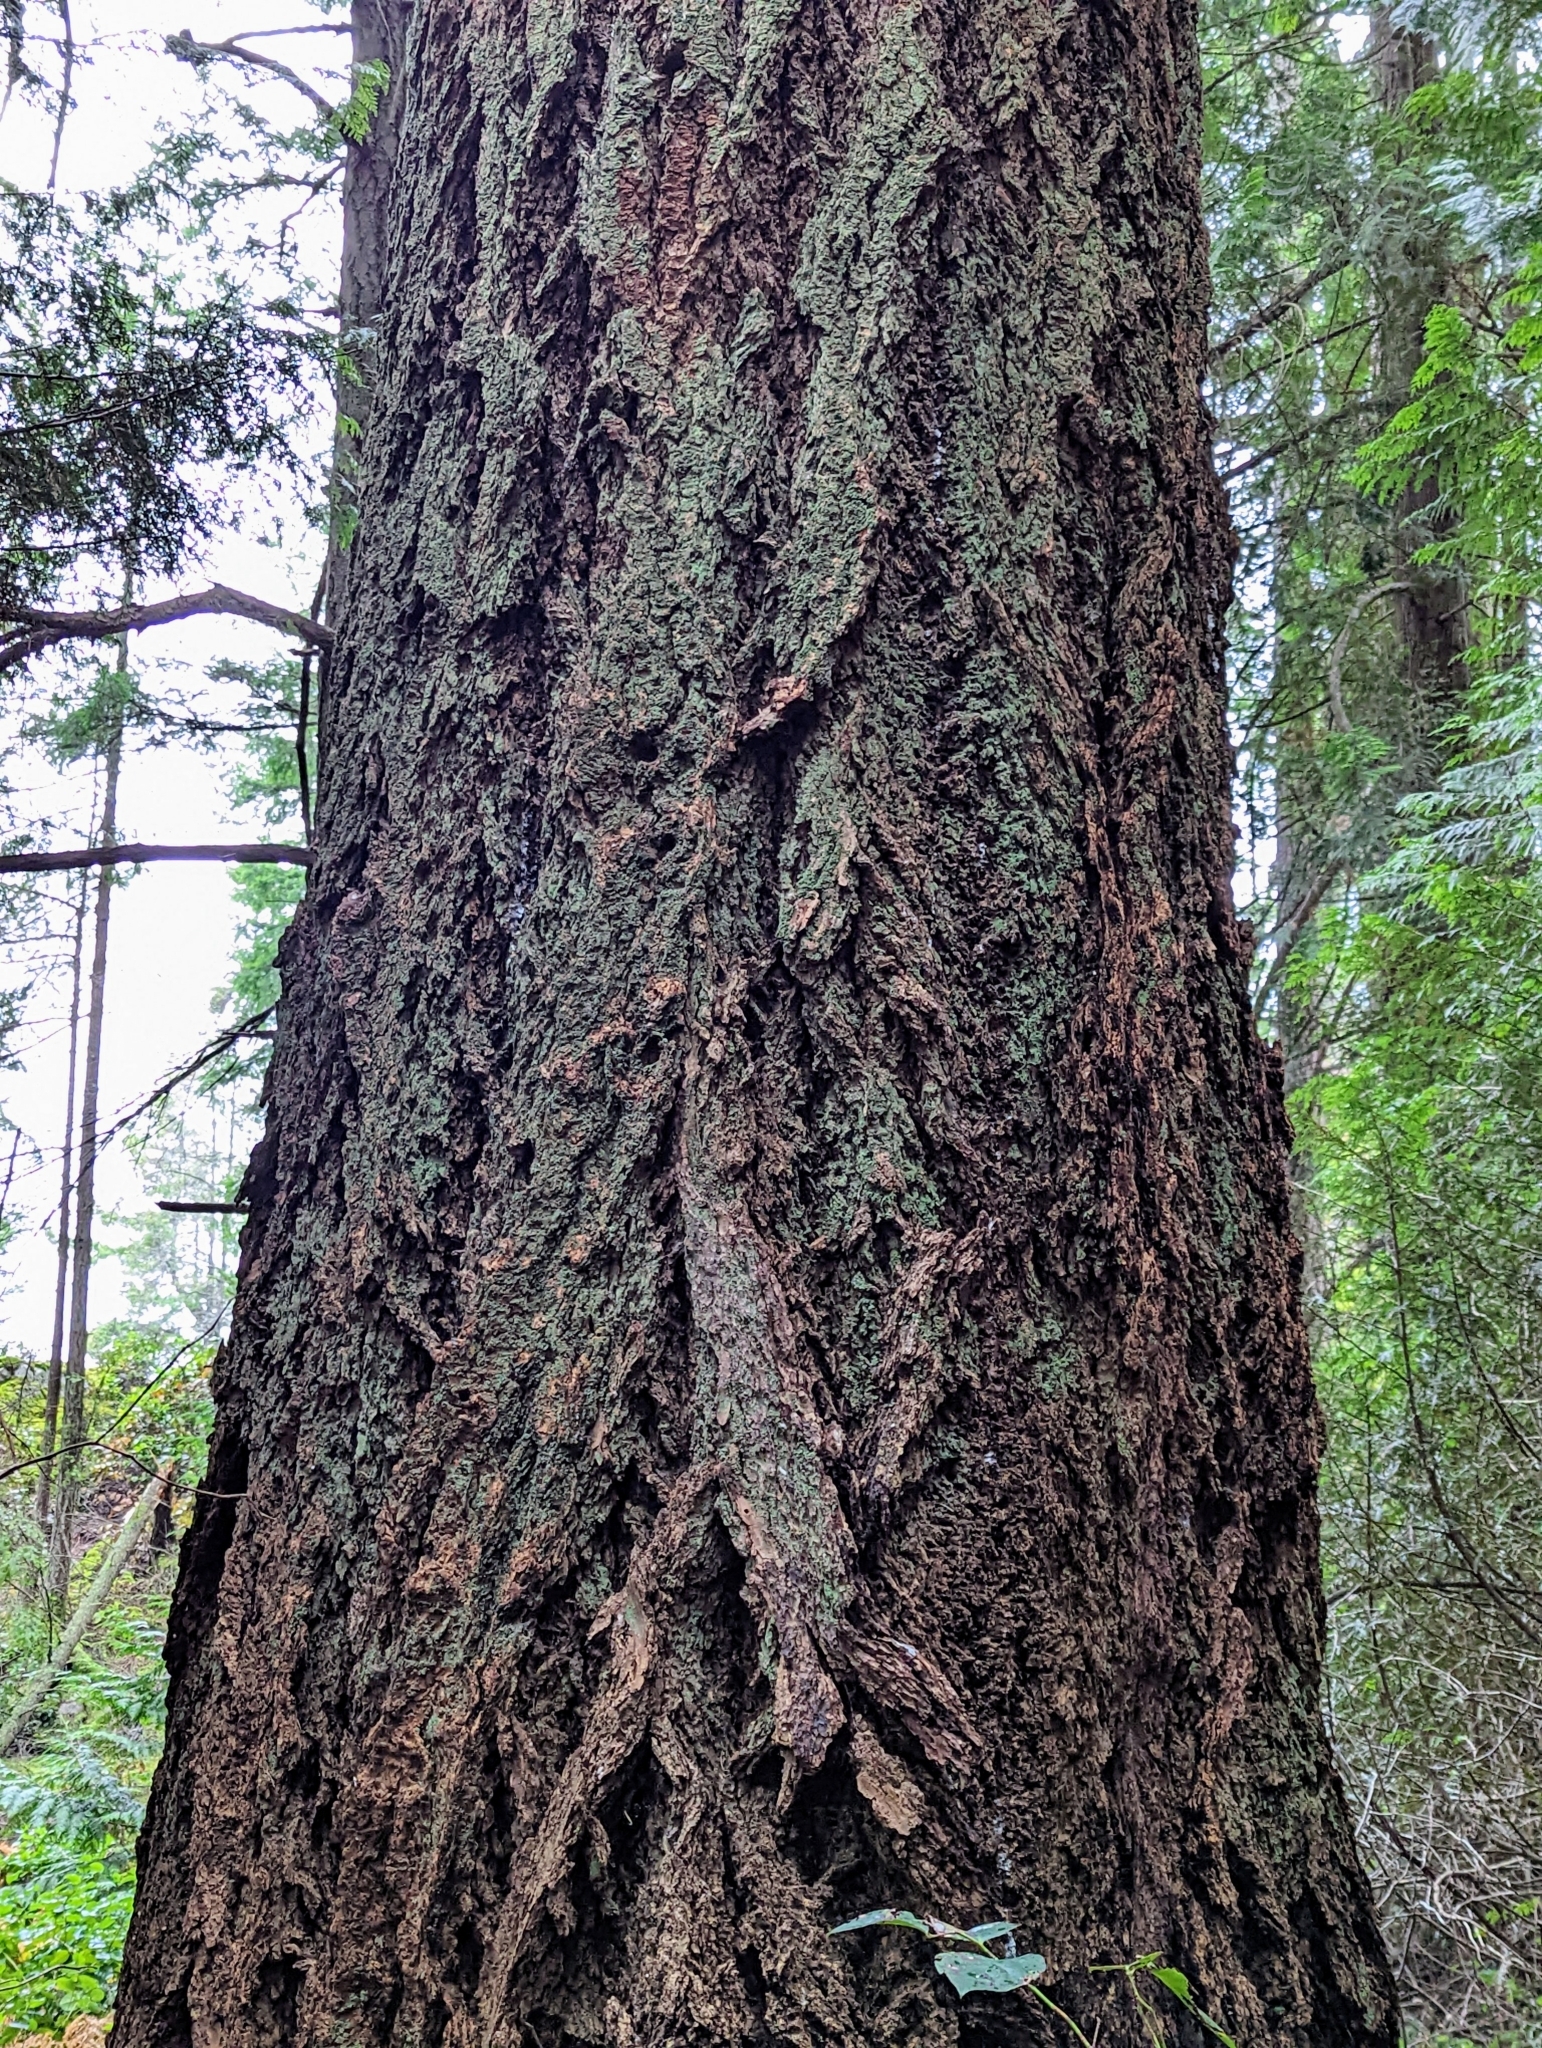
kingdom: Plantae
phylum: Tracheophyta
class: Pinopsida
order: Pinales
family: Pinaceae
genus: Pseudotsuga
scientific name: Pseudotsuga menziesii
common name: Douglas fir
